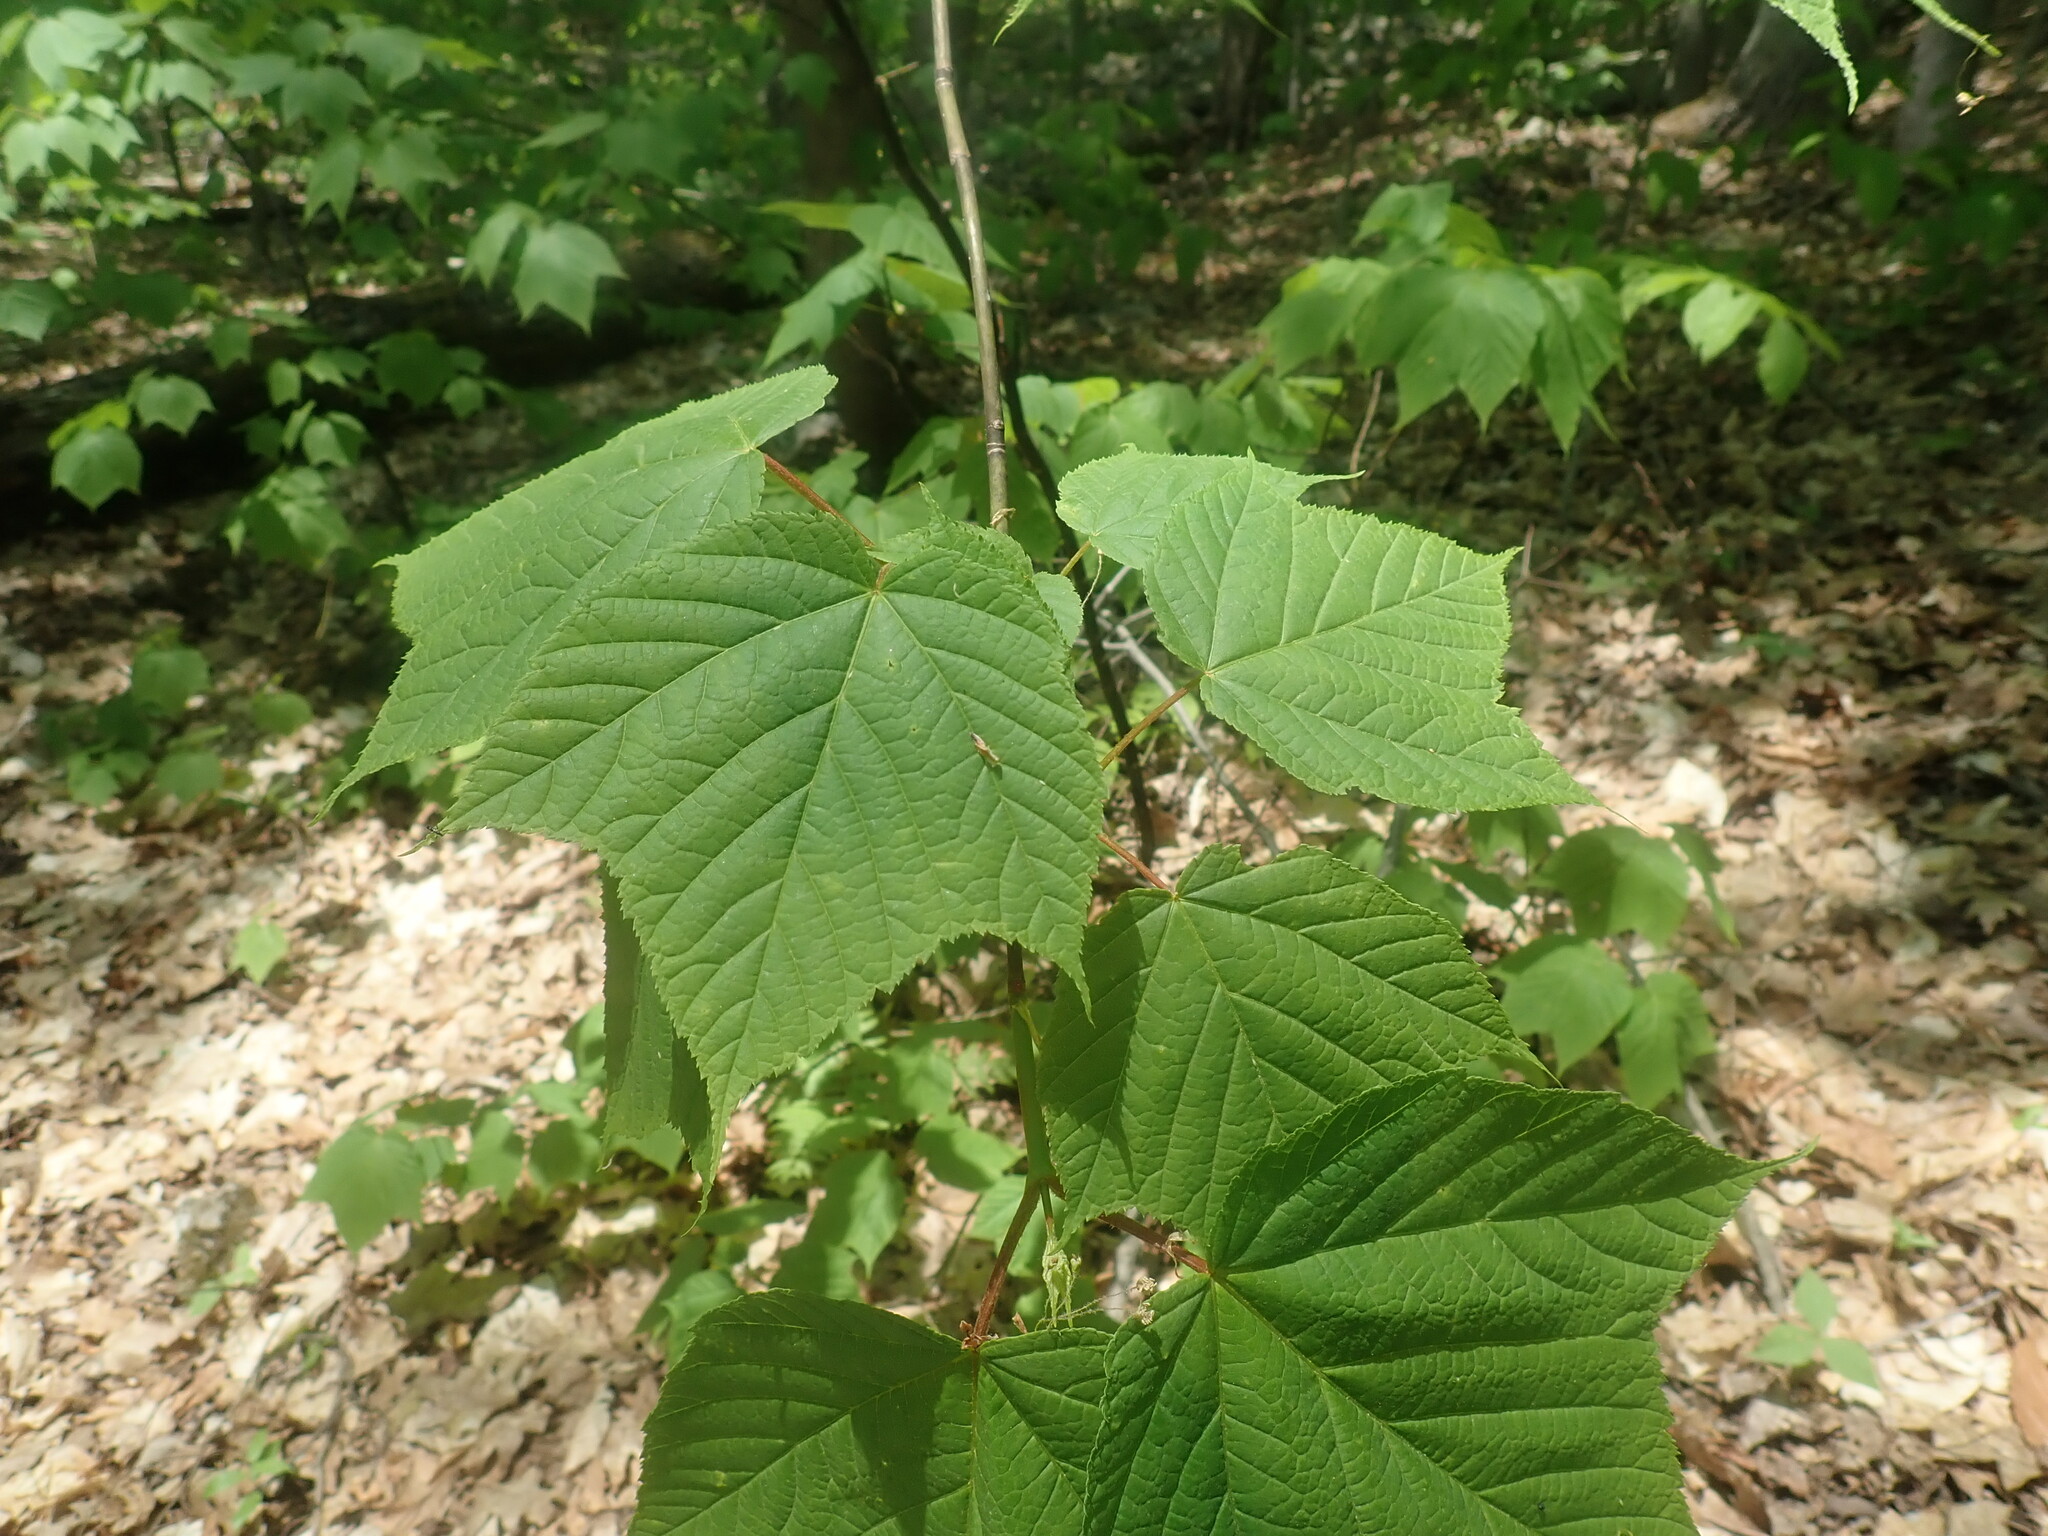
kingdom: Plantae
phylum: Tracheophyta
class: Magnoliopsida
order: Sapindales
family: Sapindaceae
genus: Acer
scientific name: Acer pensylvanicum
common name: Moosewood
